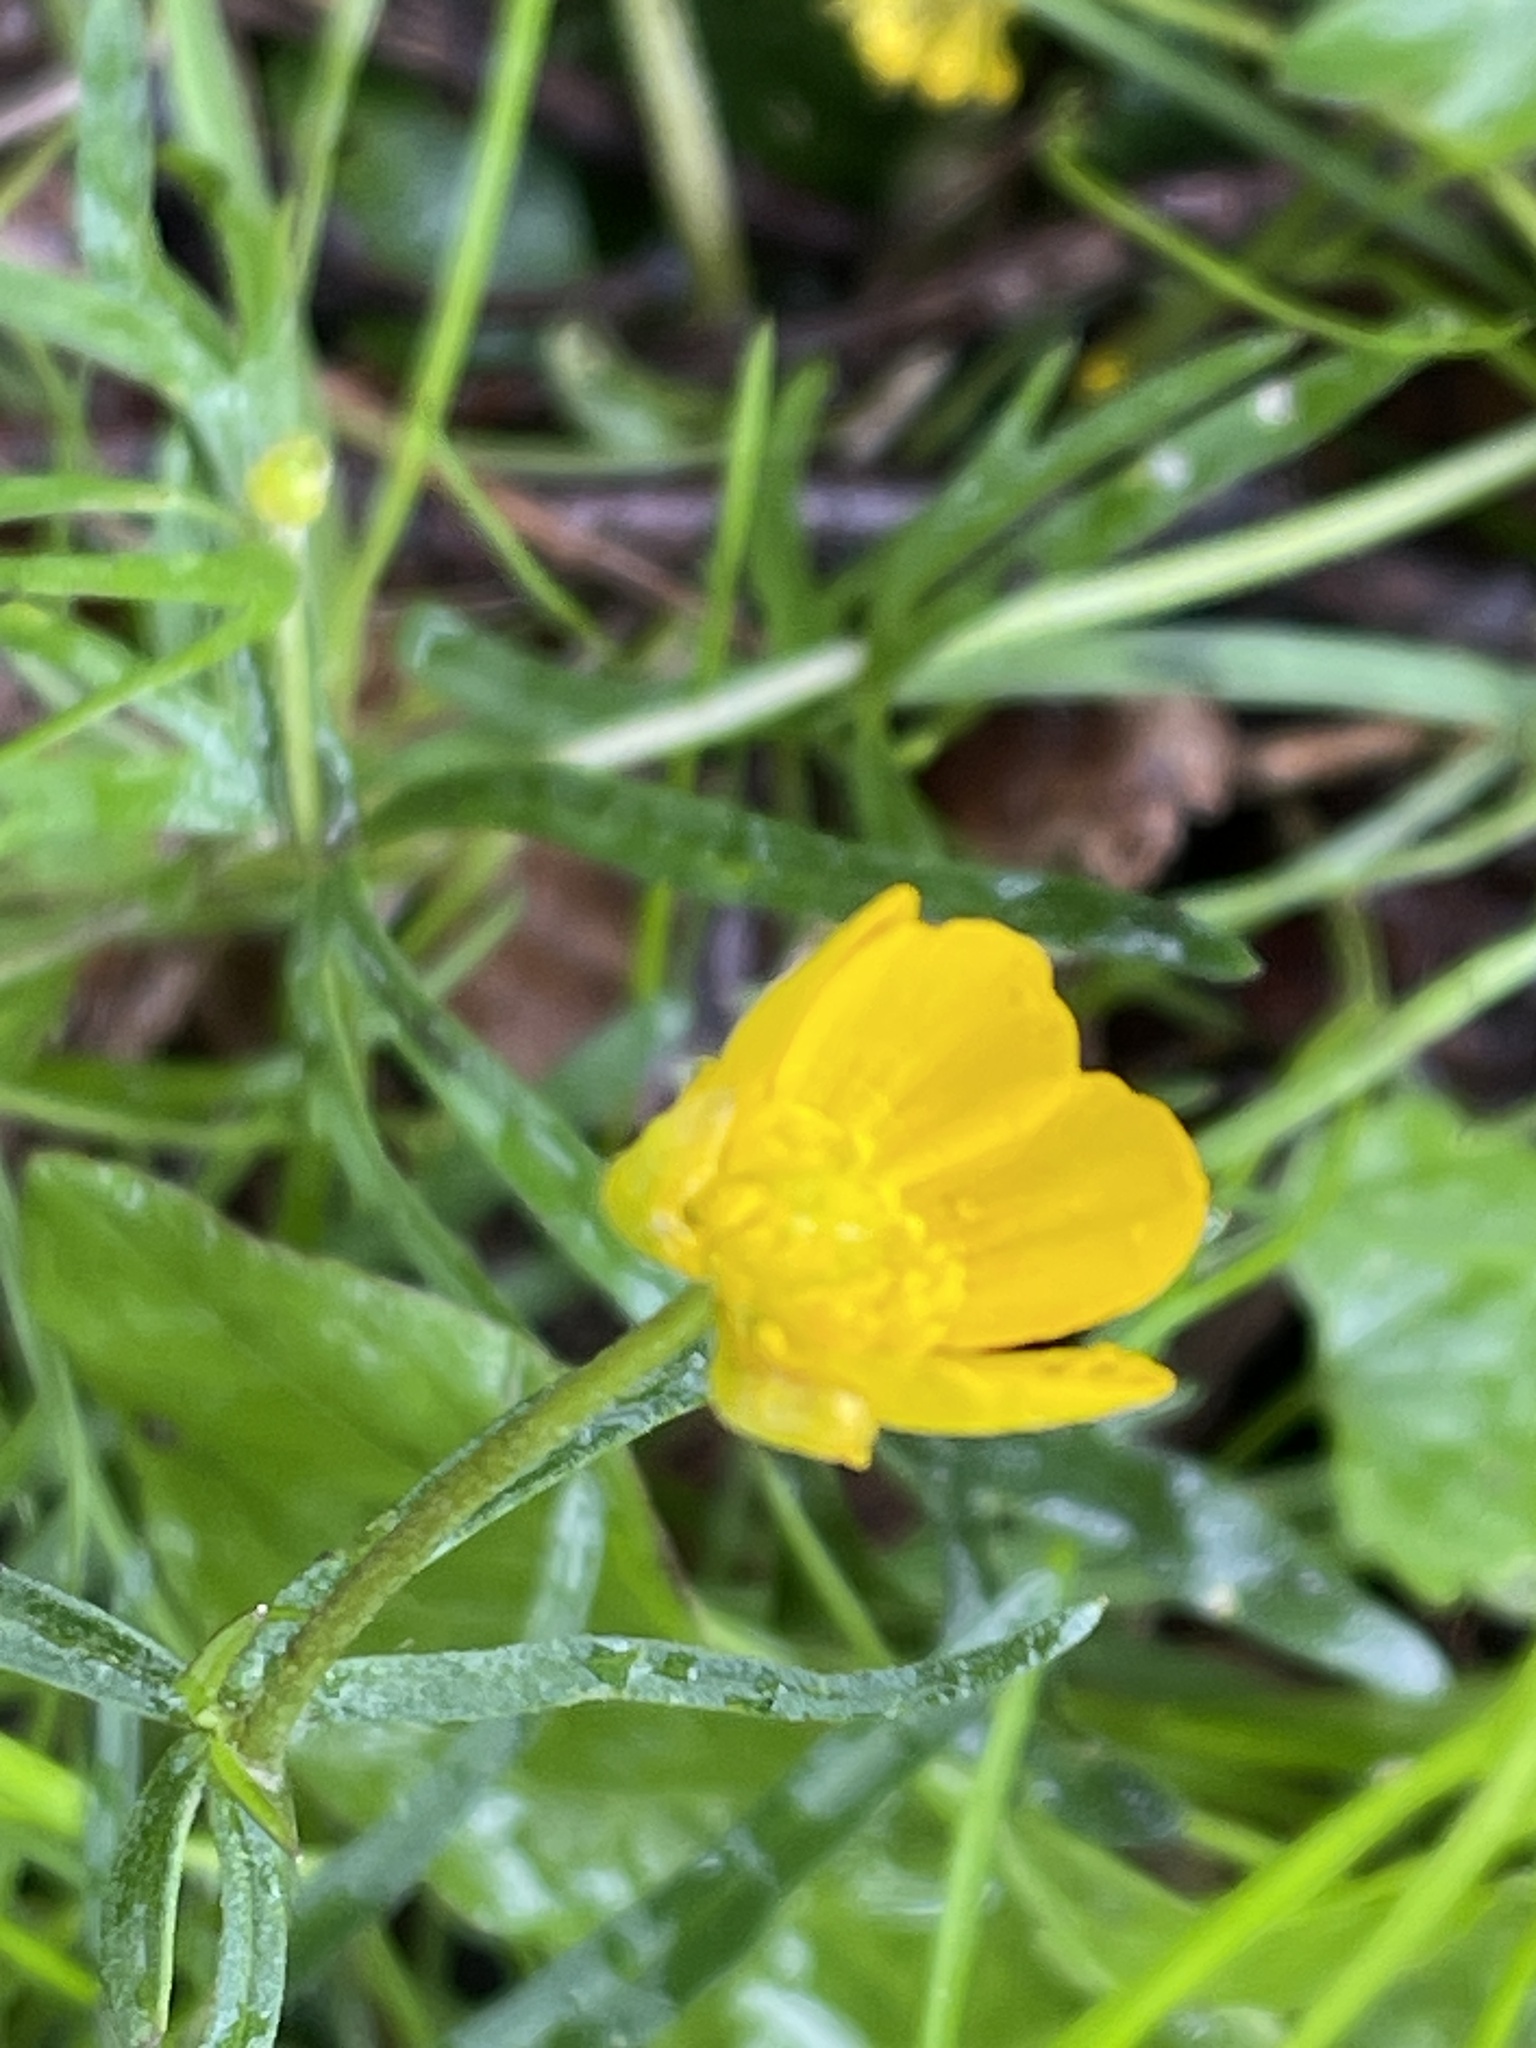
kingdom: Plantae
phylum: Tracheophyta
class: Magnoliopsida
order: Ranunculales
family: Ranunculaceae
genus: Ranunculus
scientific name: Ranunculus auricomus
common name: Goldilocks buttercup
